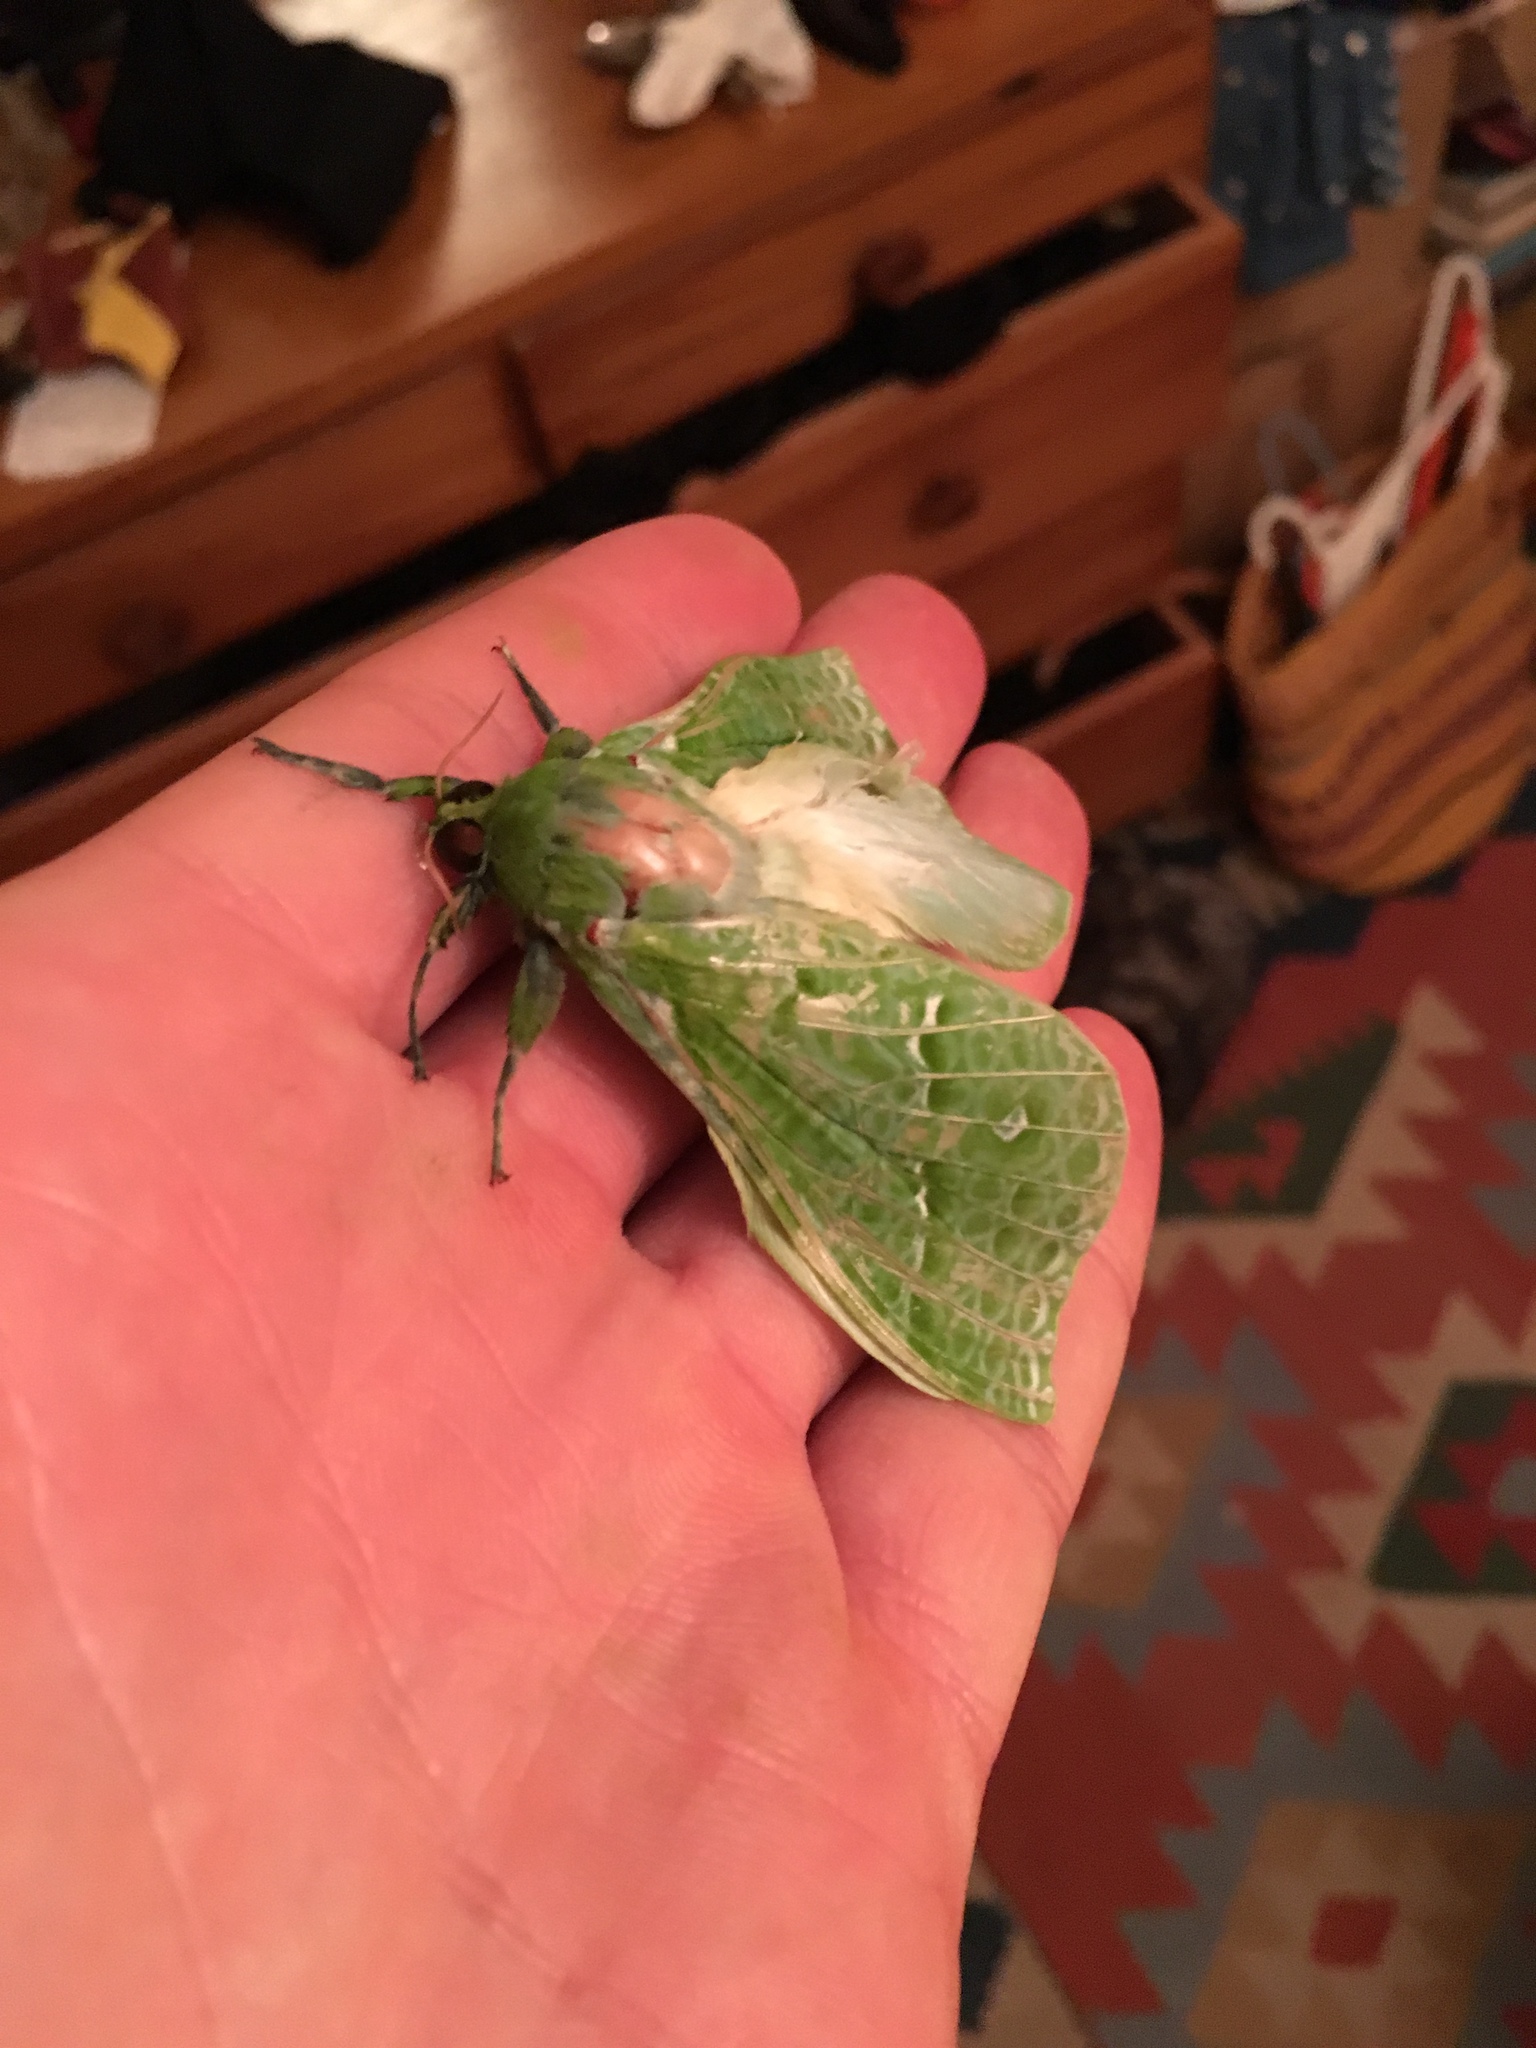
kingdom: Animalia
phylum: Arthropoda
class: Insecta
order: Lepidoptera
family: Hepialidae
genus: Aenetus
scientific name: Aenetus virescens
